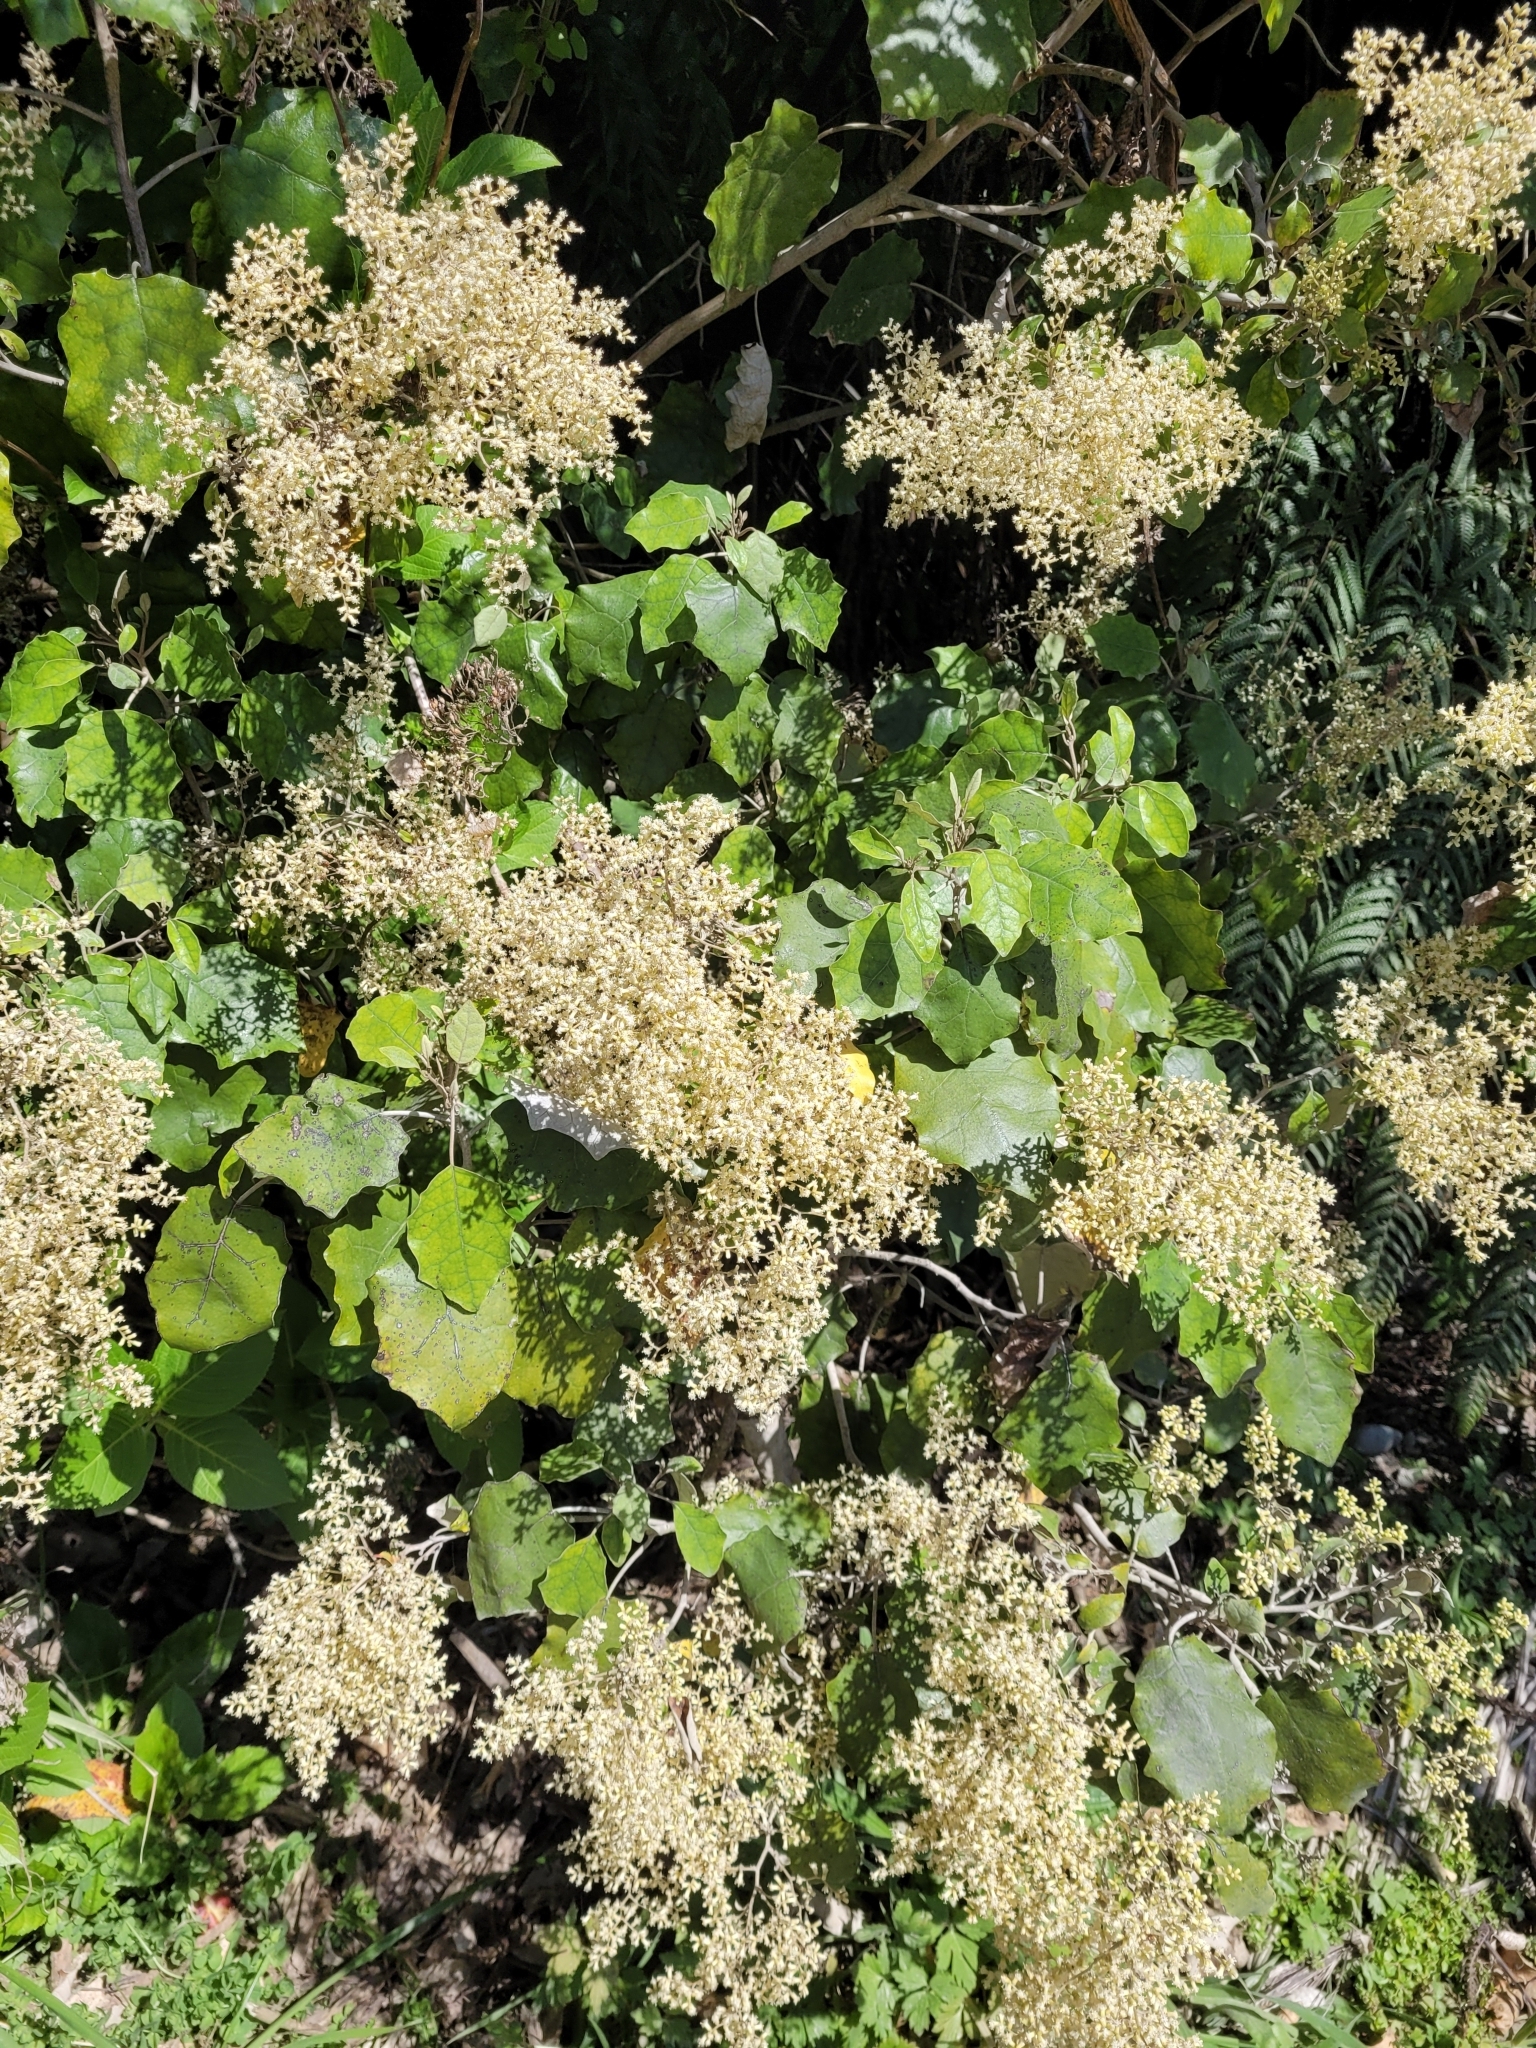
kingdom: Plantae
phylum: Tracheophyta
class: Magnoliopsida
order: Asterales
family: Asteraceae
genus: Brachyglottis
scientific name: Brachyglottis repanda
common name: Hedge ragwort
